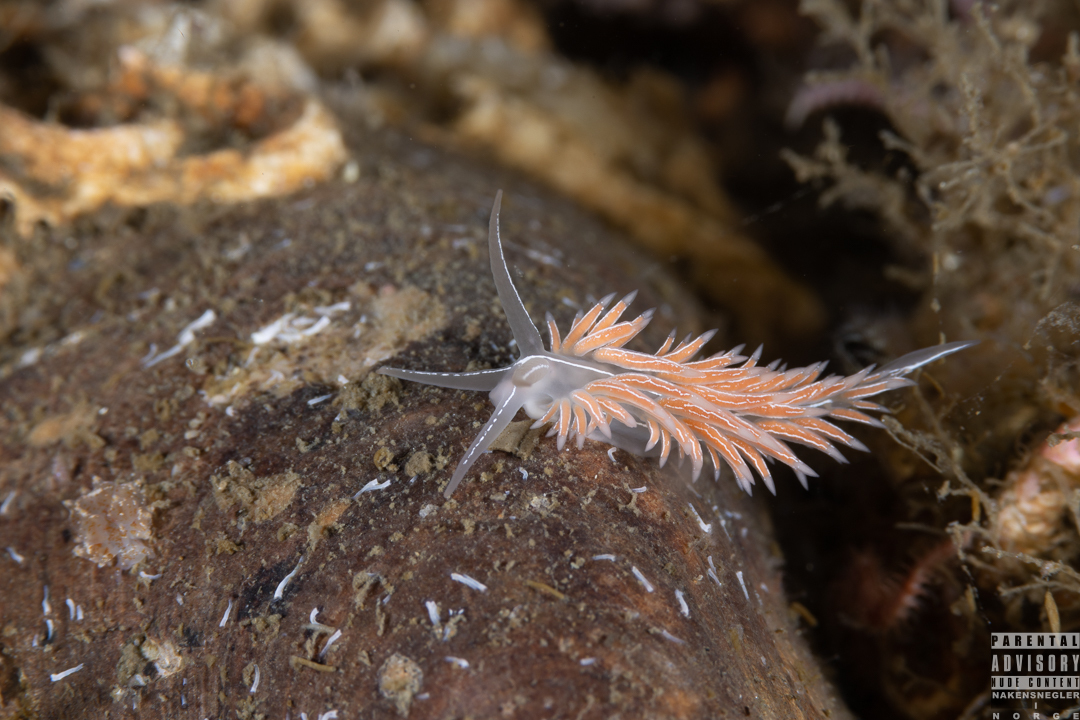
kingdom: Animalia
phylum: Mollusca
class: Gastropoda
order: Nudibranchia
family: Coryphellidae
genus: Coryphella
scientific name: Coryphella chriskaugei
